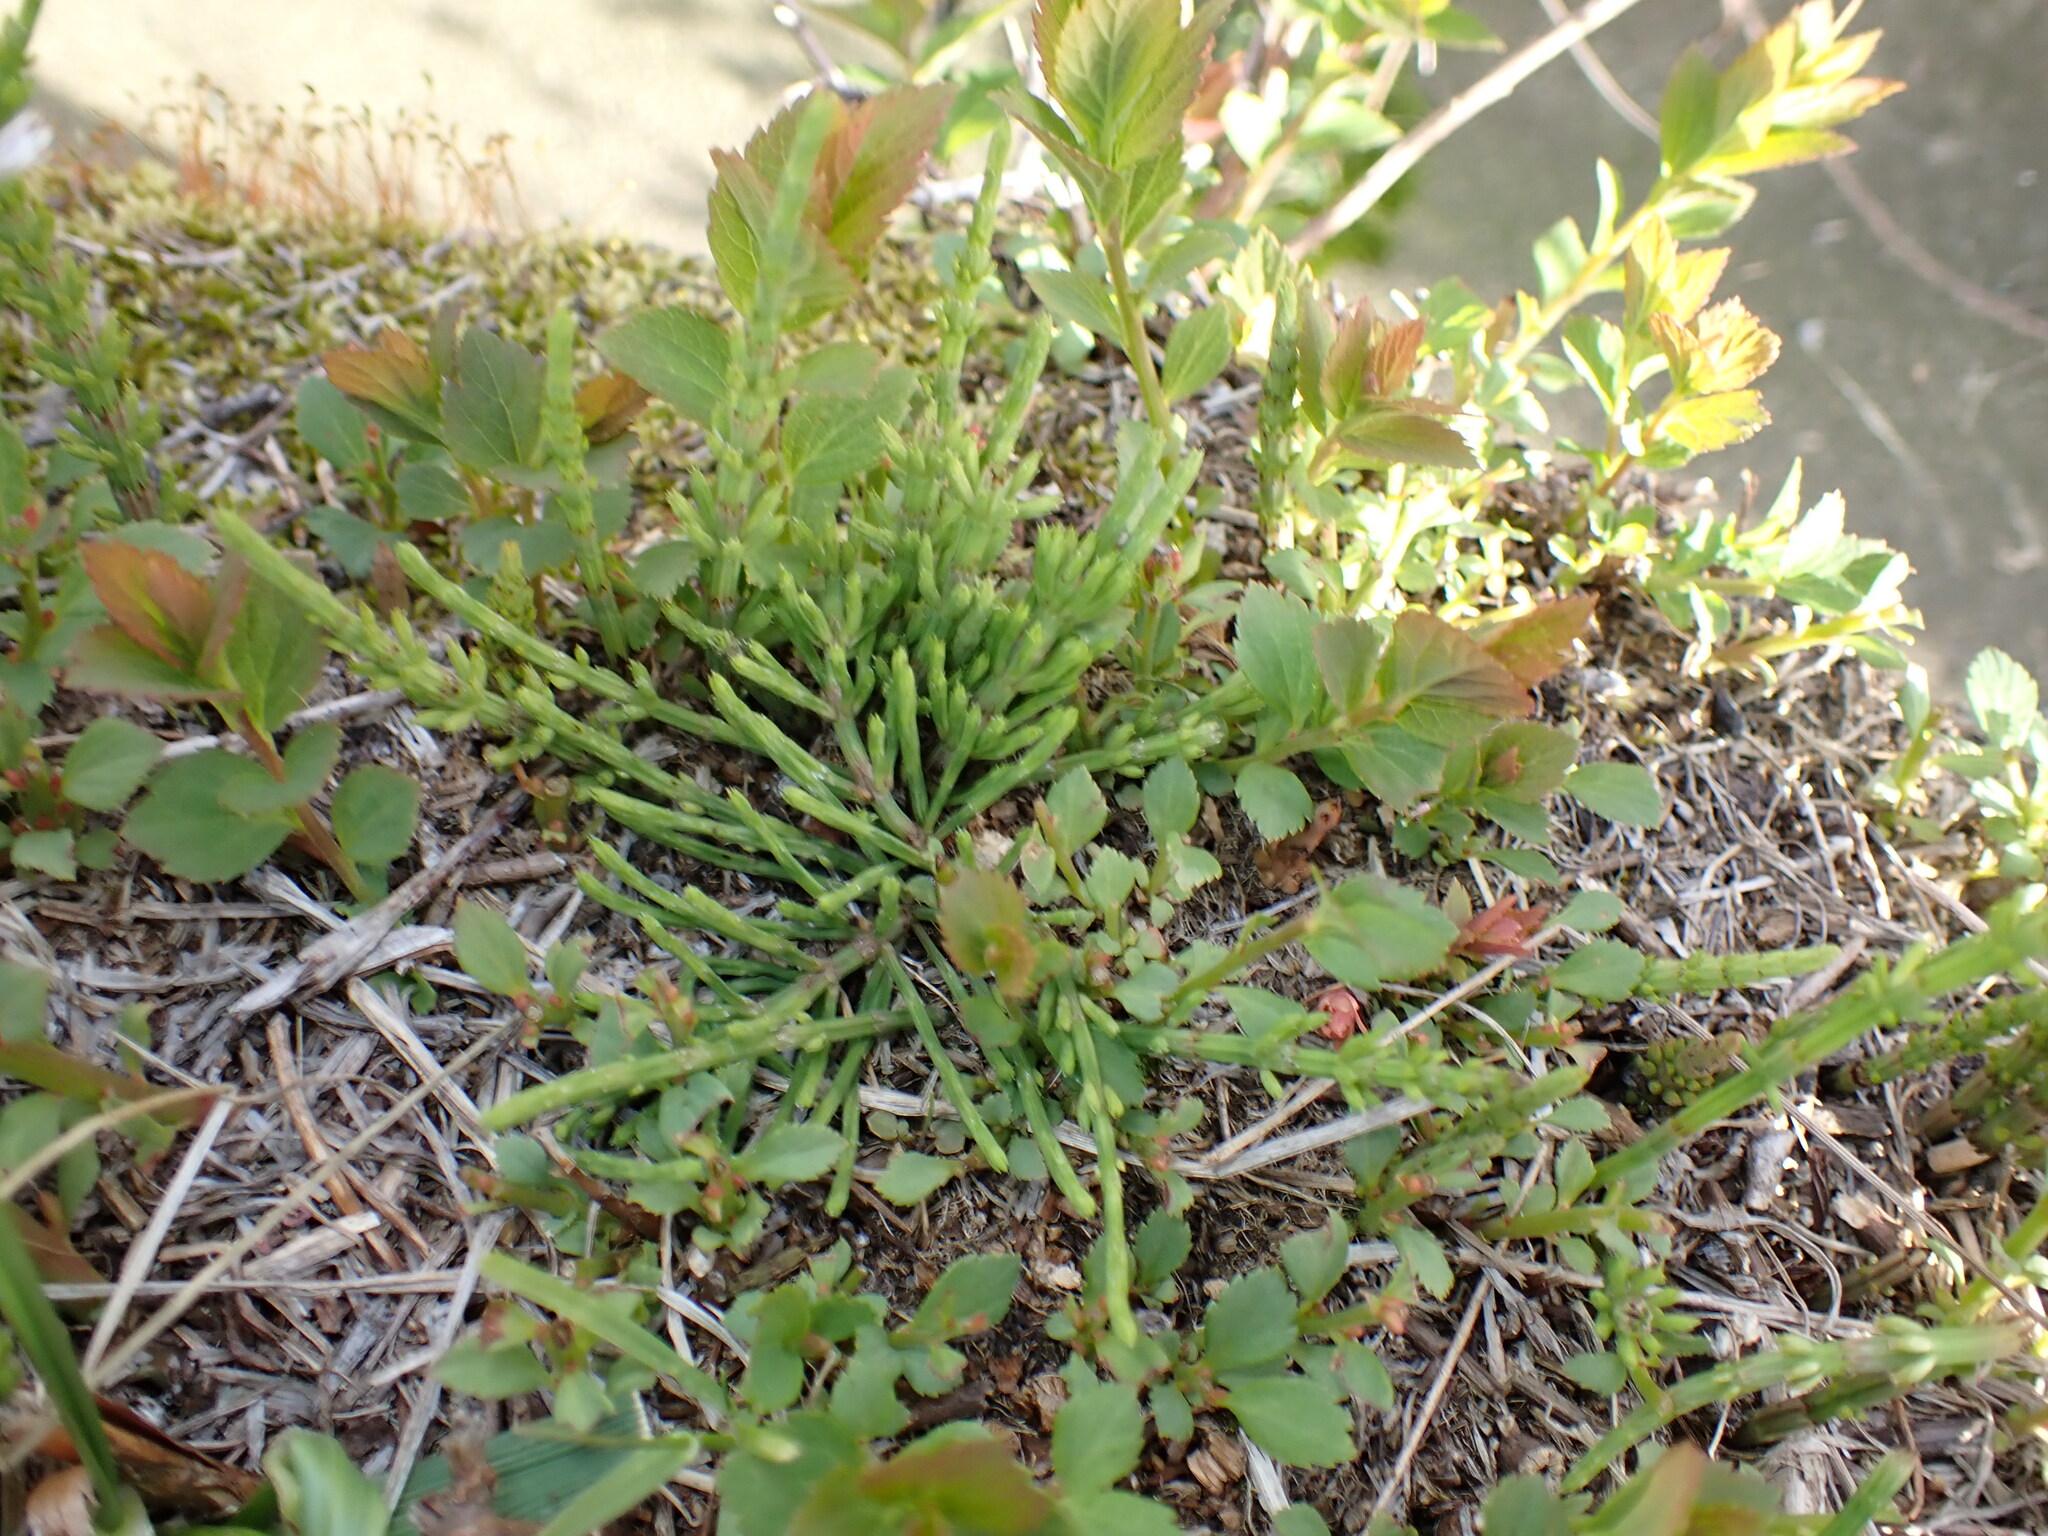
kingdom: Plantae
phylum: Tracheophyta
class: Polypodiopsida
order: Equisetales
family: Equisetaceae
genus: Equisetum
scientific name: Equisetum arvense
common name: Field horsetail
